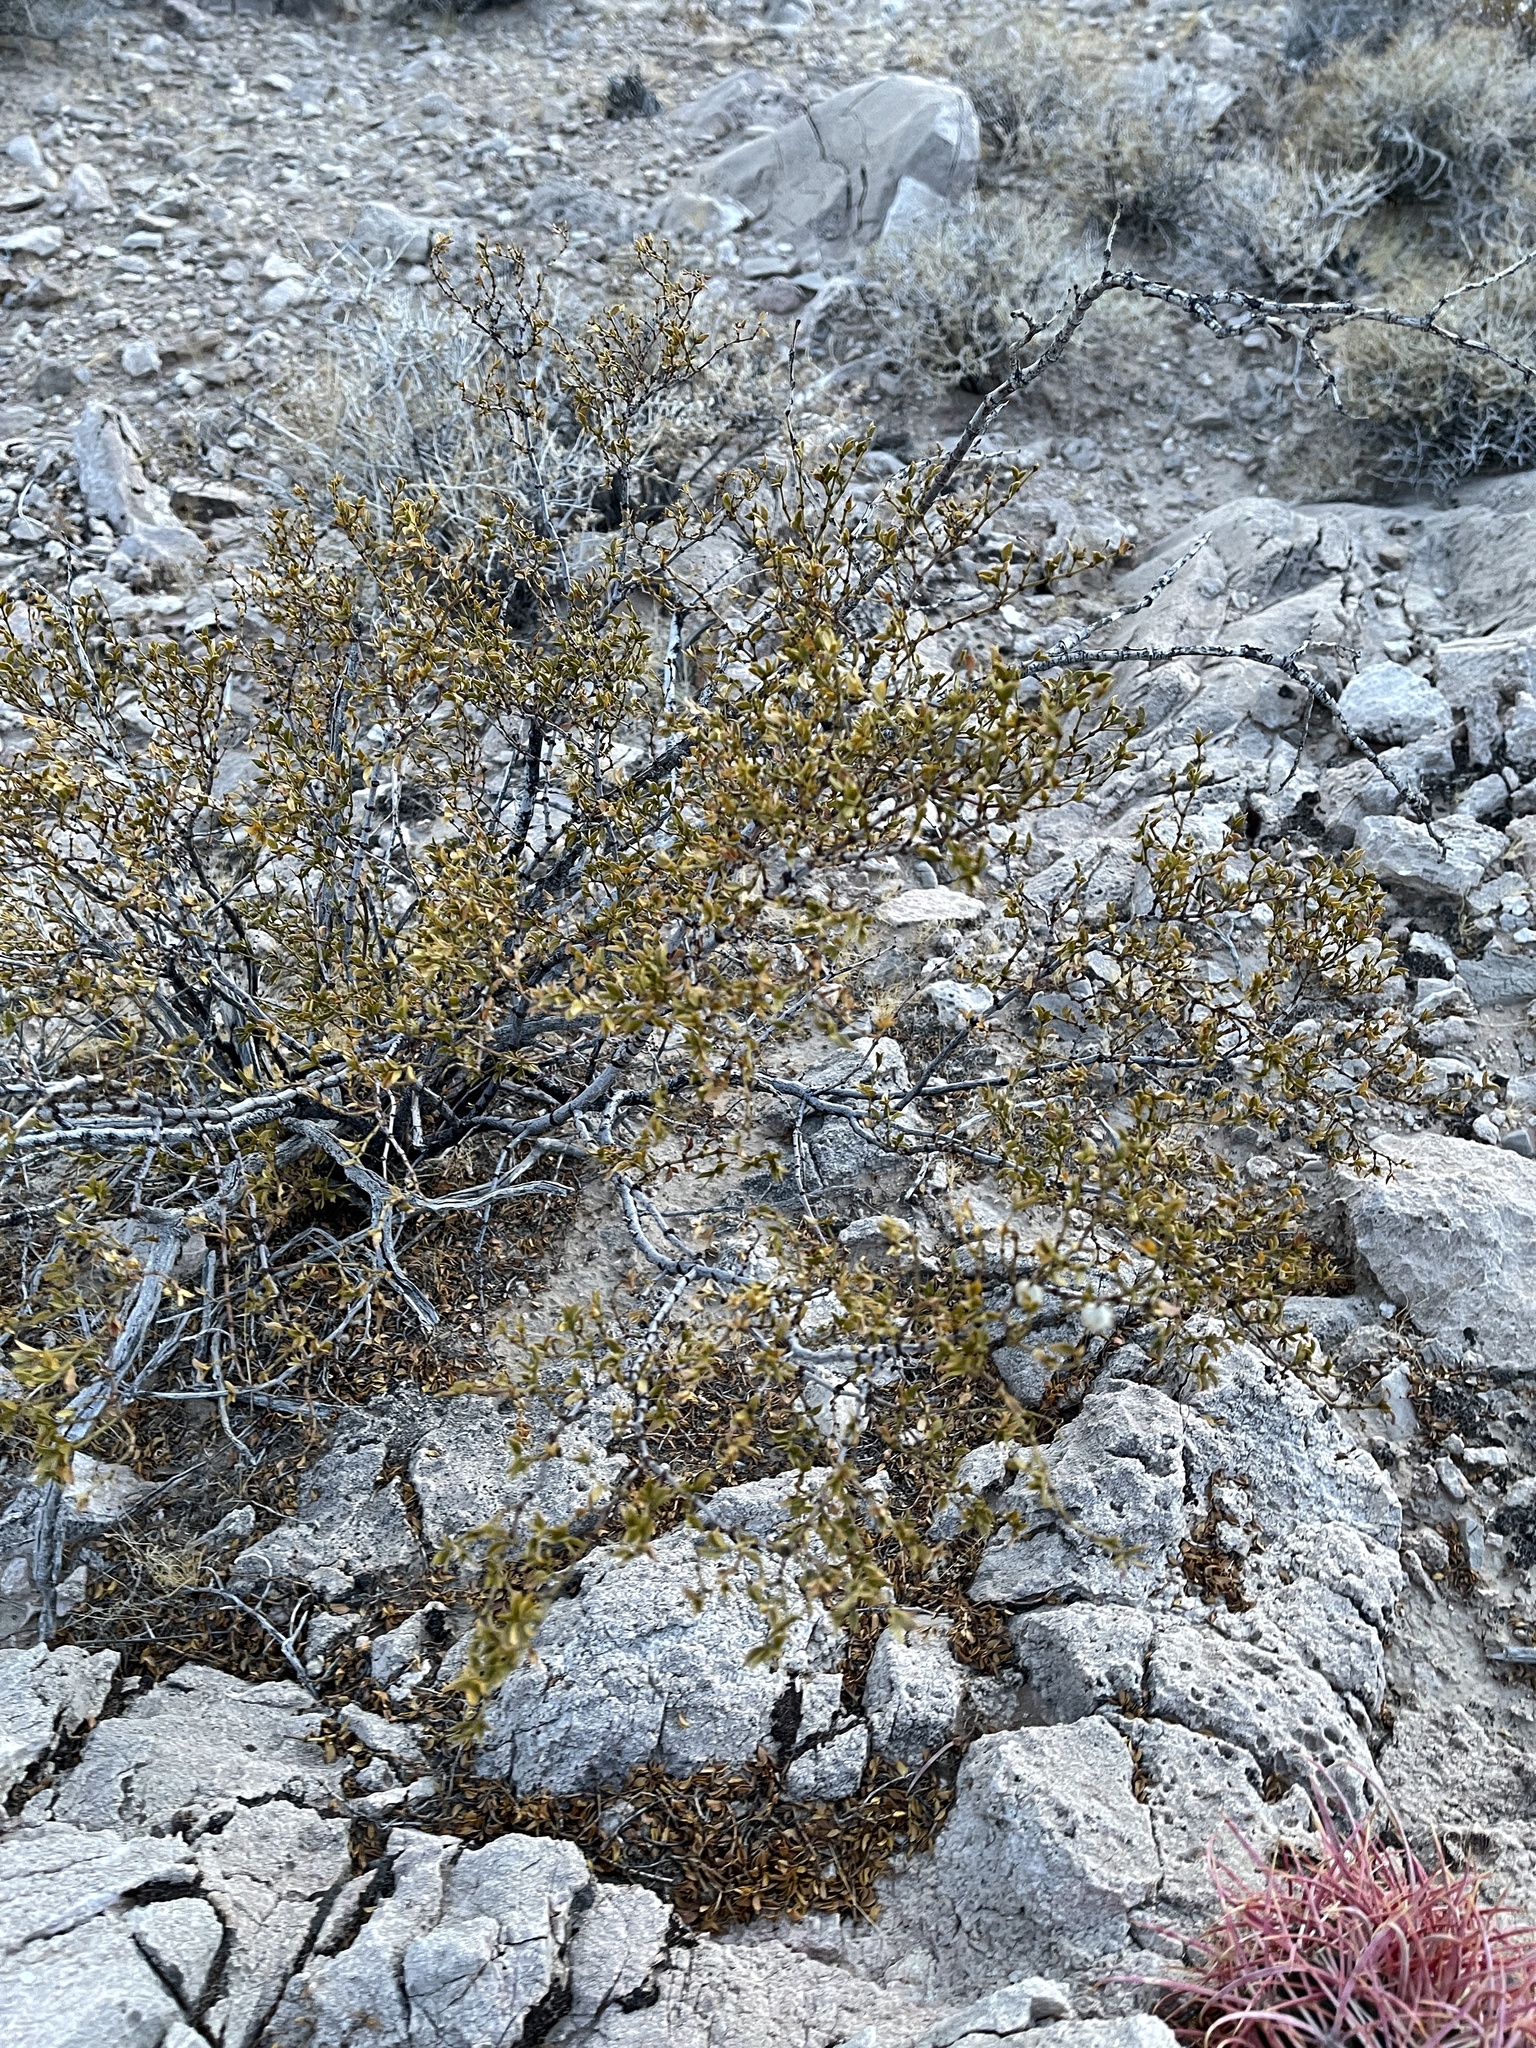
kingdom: Plantae
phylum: Tracheophyta
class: Magnoliopsida
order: Zygophyllales
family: Zygophyllaceae
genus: Larrea
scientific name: Larrea tridentata
